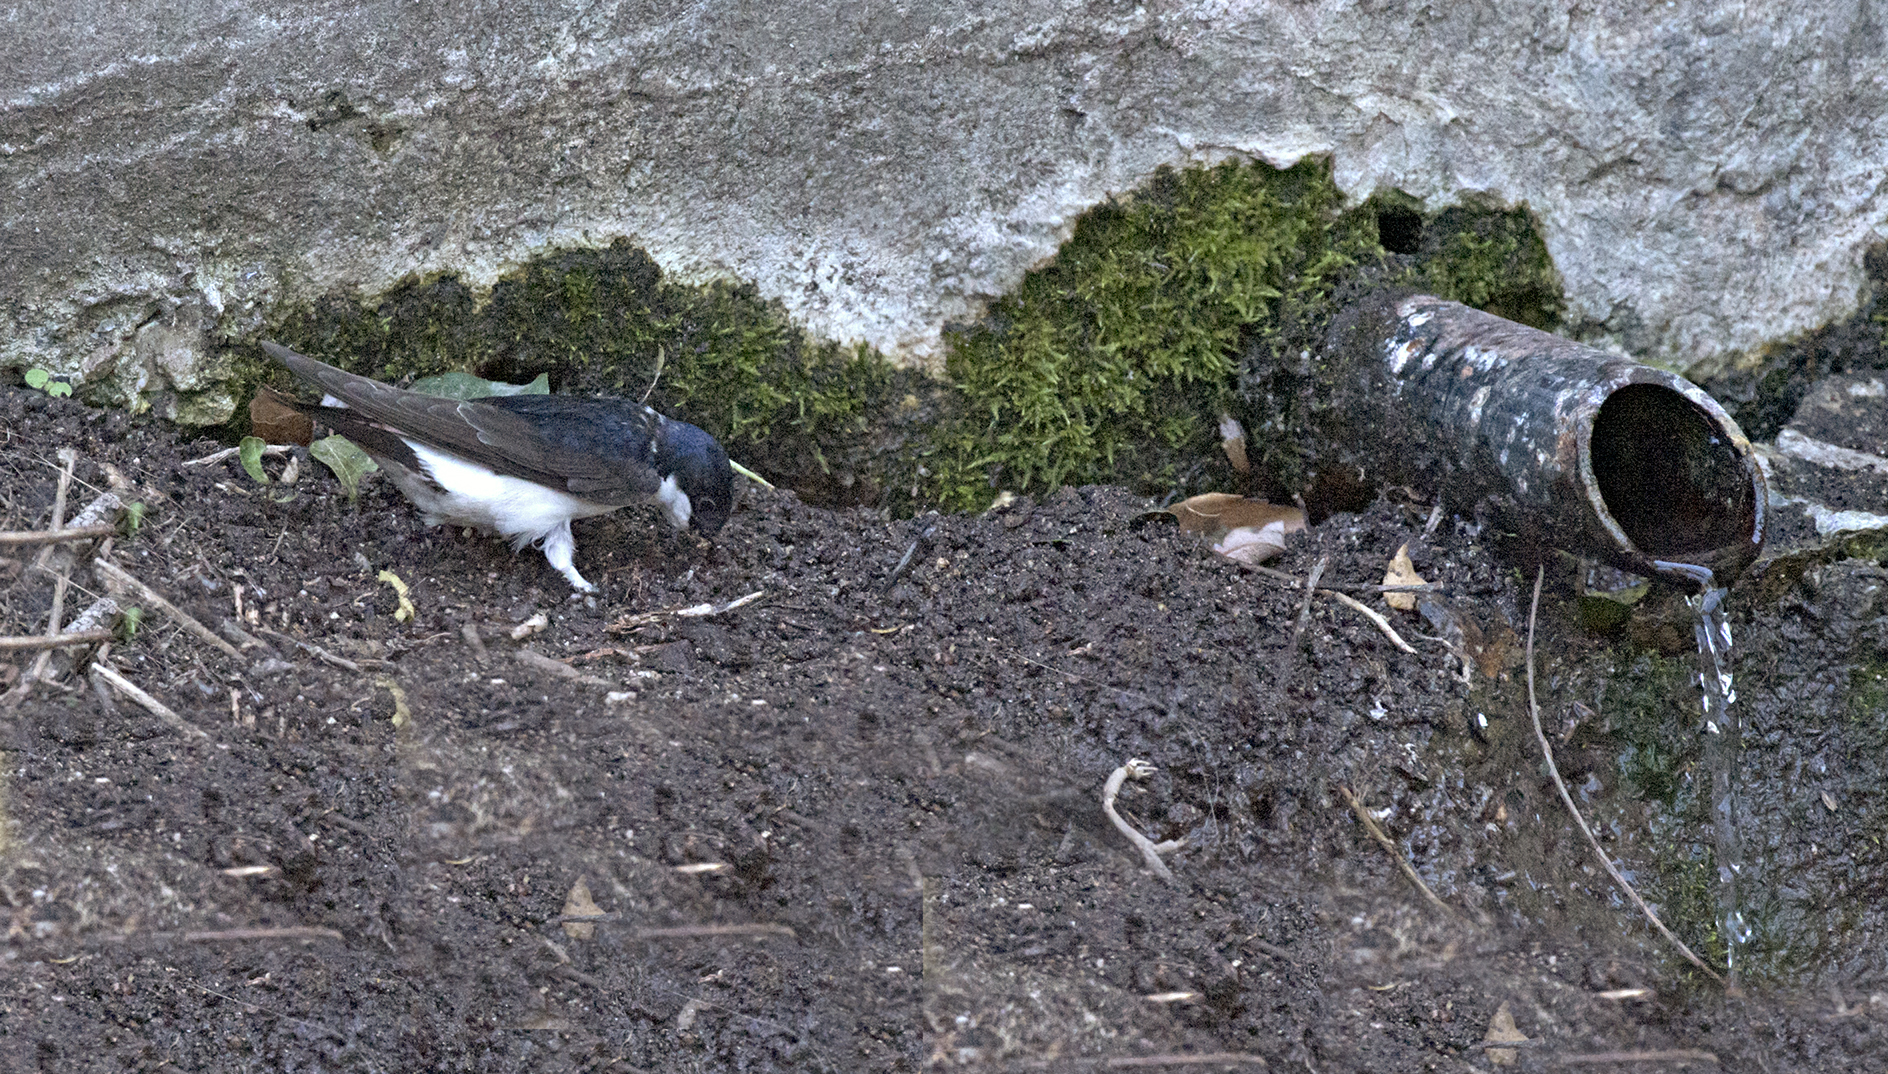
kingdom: Animalia
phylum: Chordata
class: Aves
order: Passeriformes
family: Hirundinidae
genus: Delichon
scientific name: Delichon urbicum
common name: Common house martin
